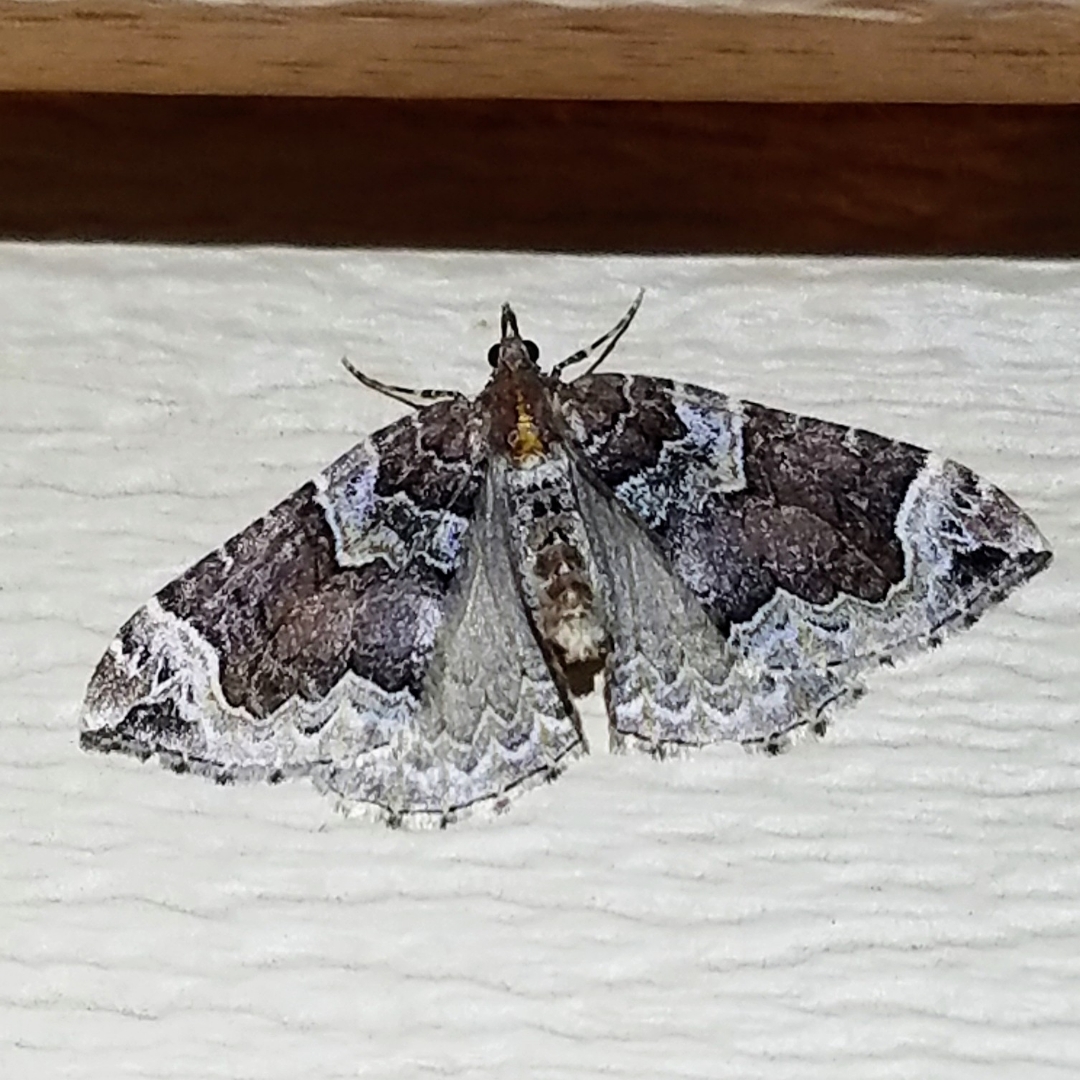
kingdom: Animalia
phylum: Arthropoda
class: Insecta
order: Lepidoptera
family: Geometridae
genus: Eulithis
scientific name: Eulithis xylina
